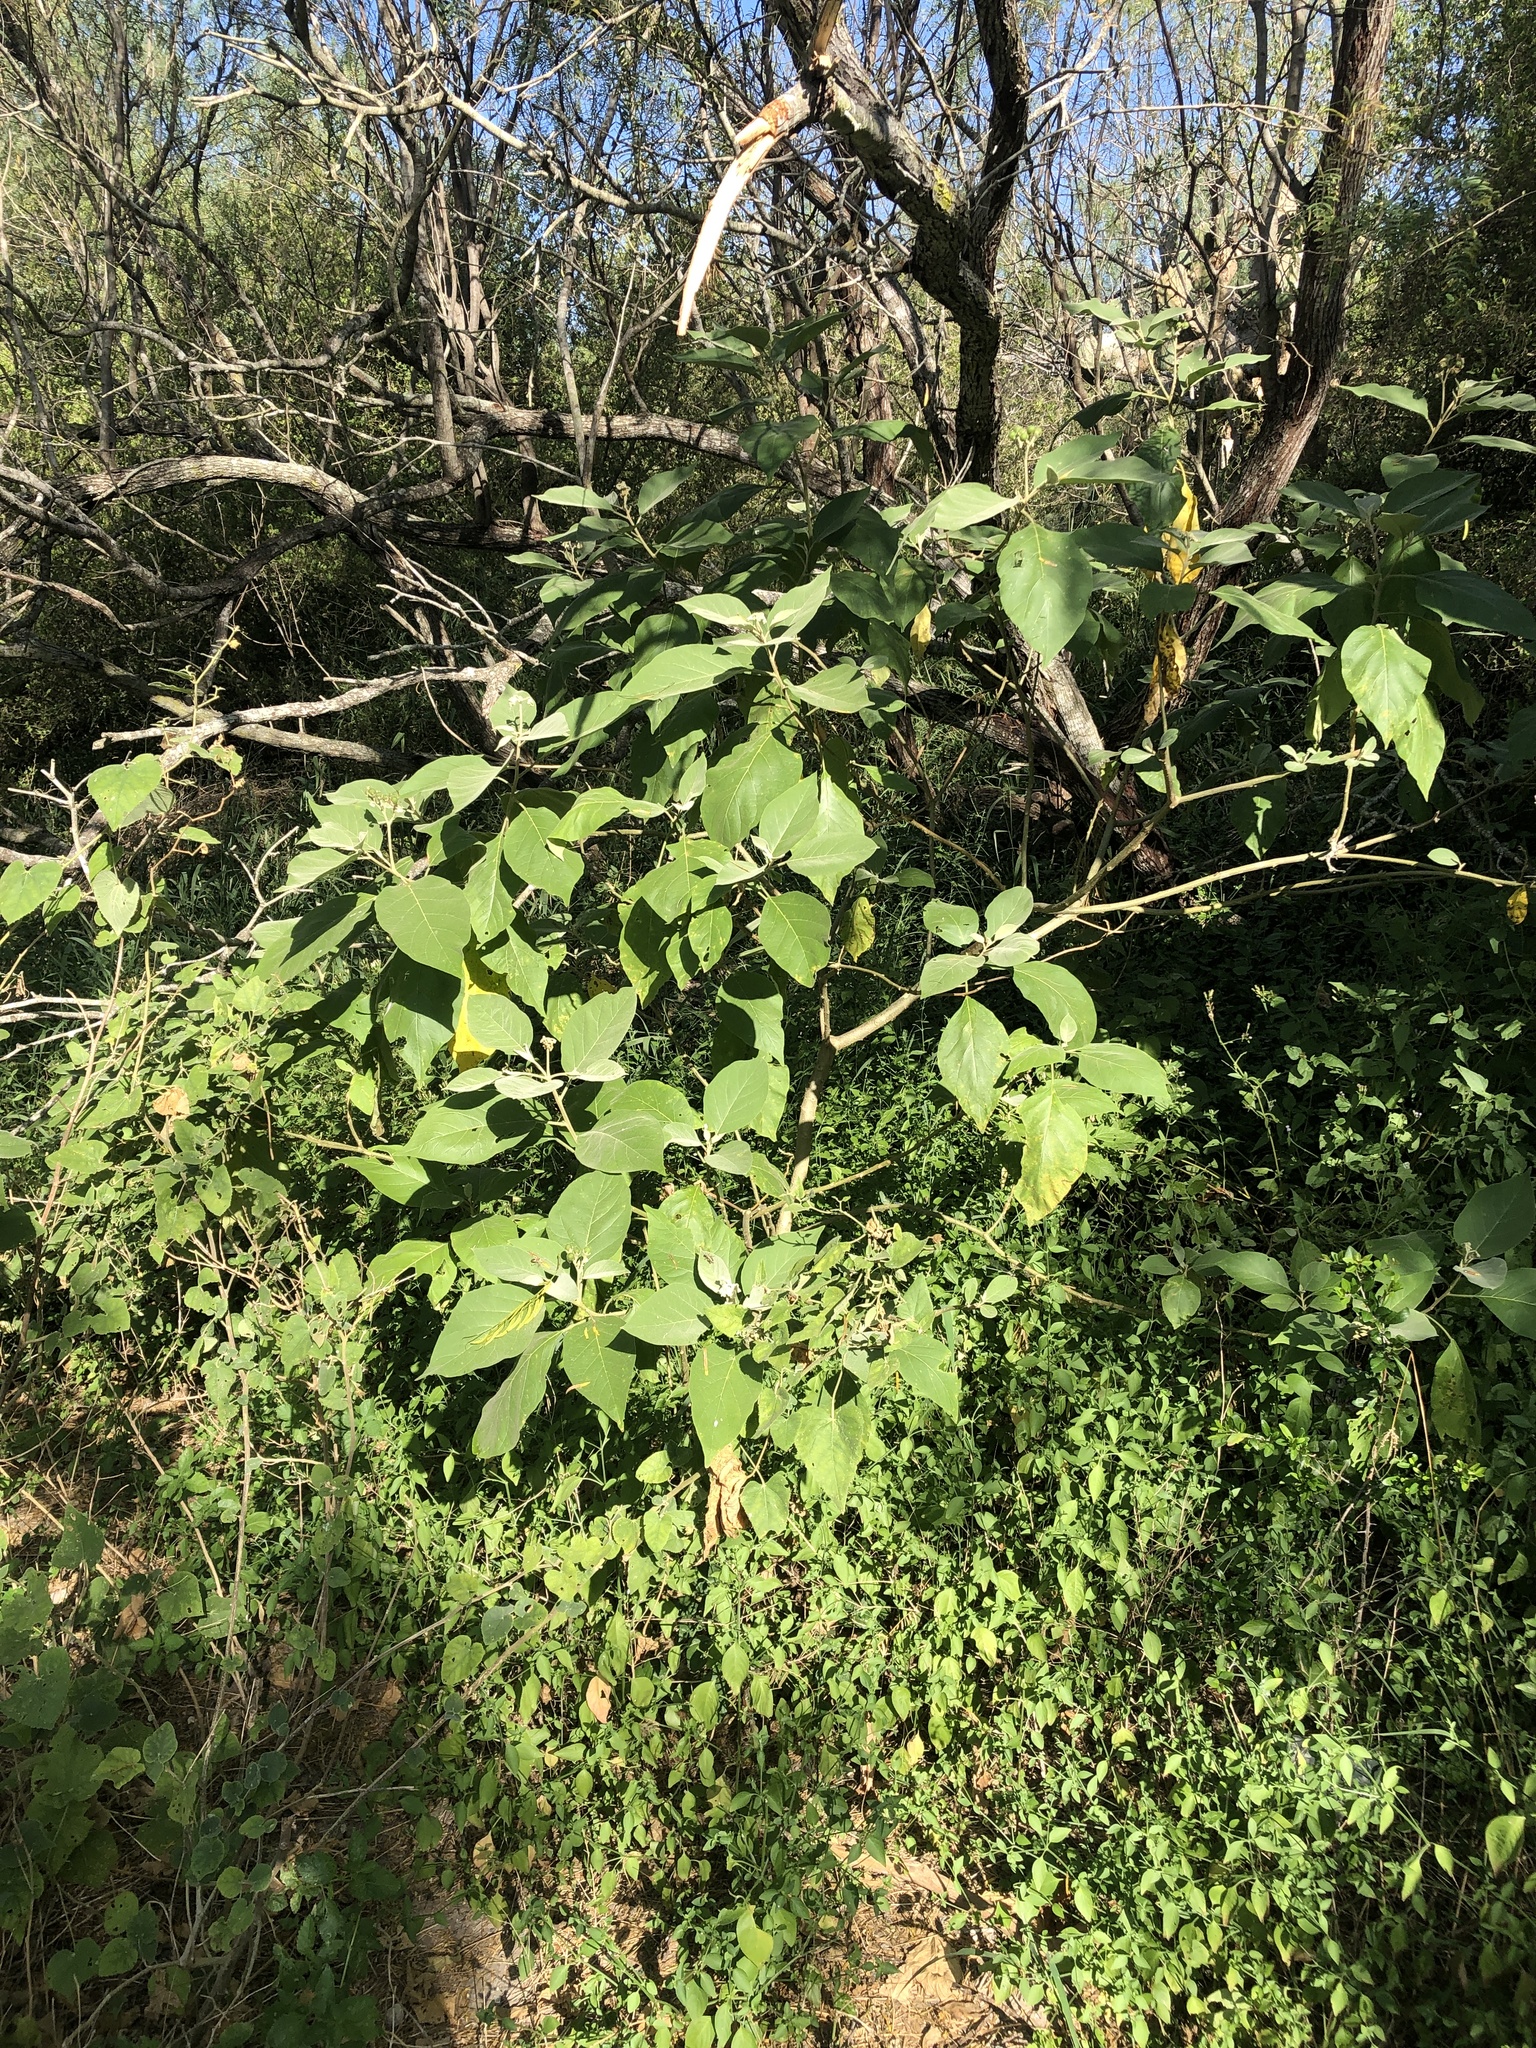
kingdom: Plantae
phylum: Tracheophyta
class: Magnoliopsida
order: Solanales
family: Solanaceae
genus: Solanum
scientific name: Solanum erianthum
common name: Tobacco-tree
